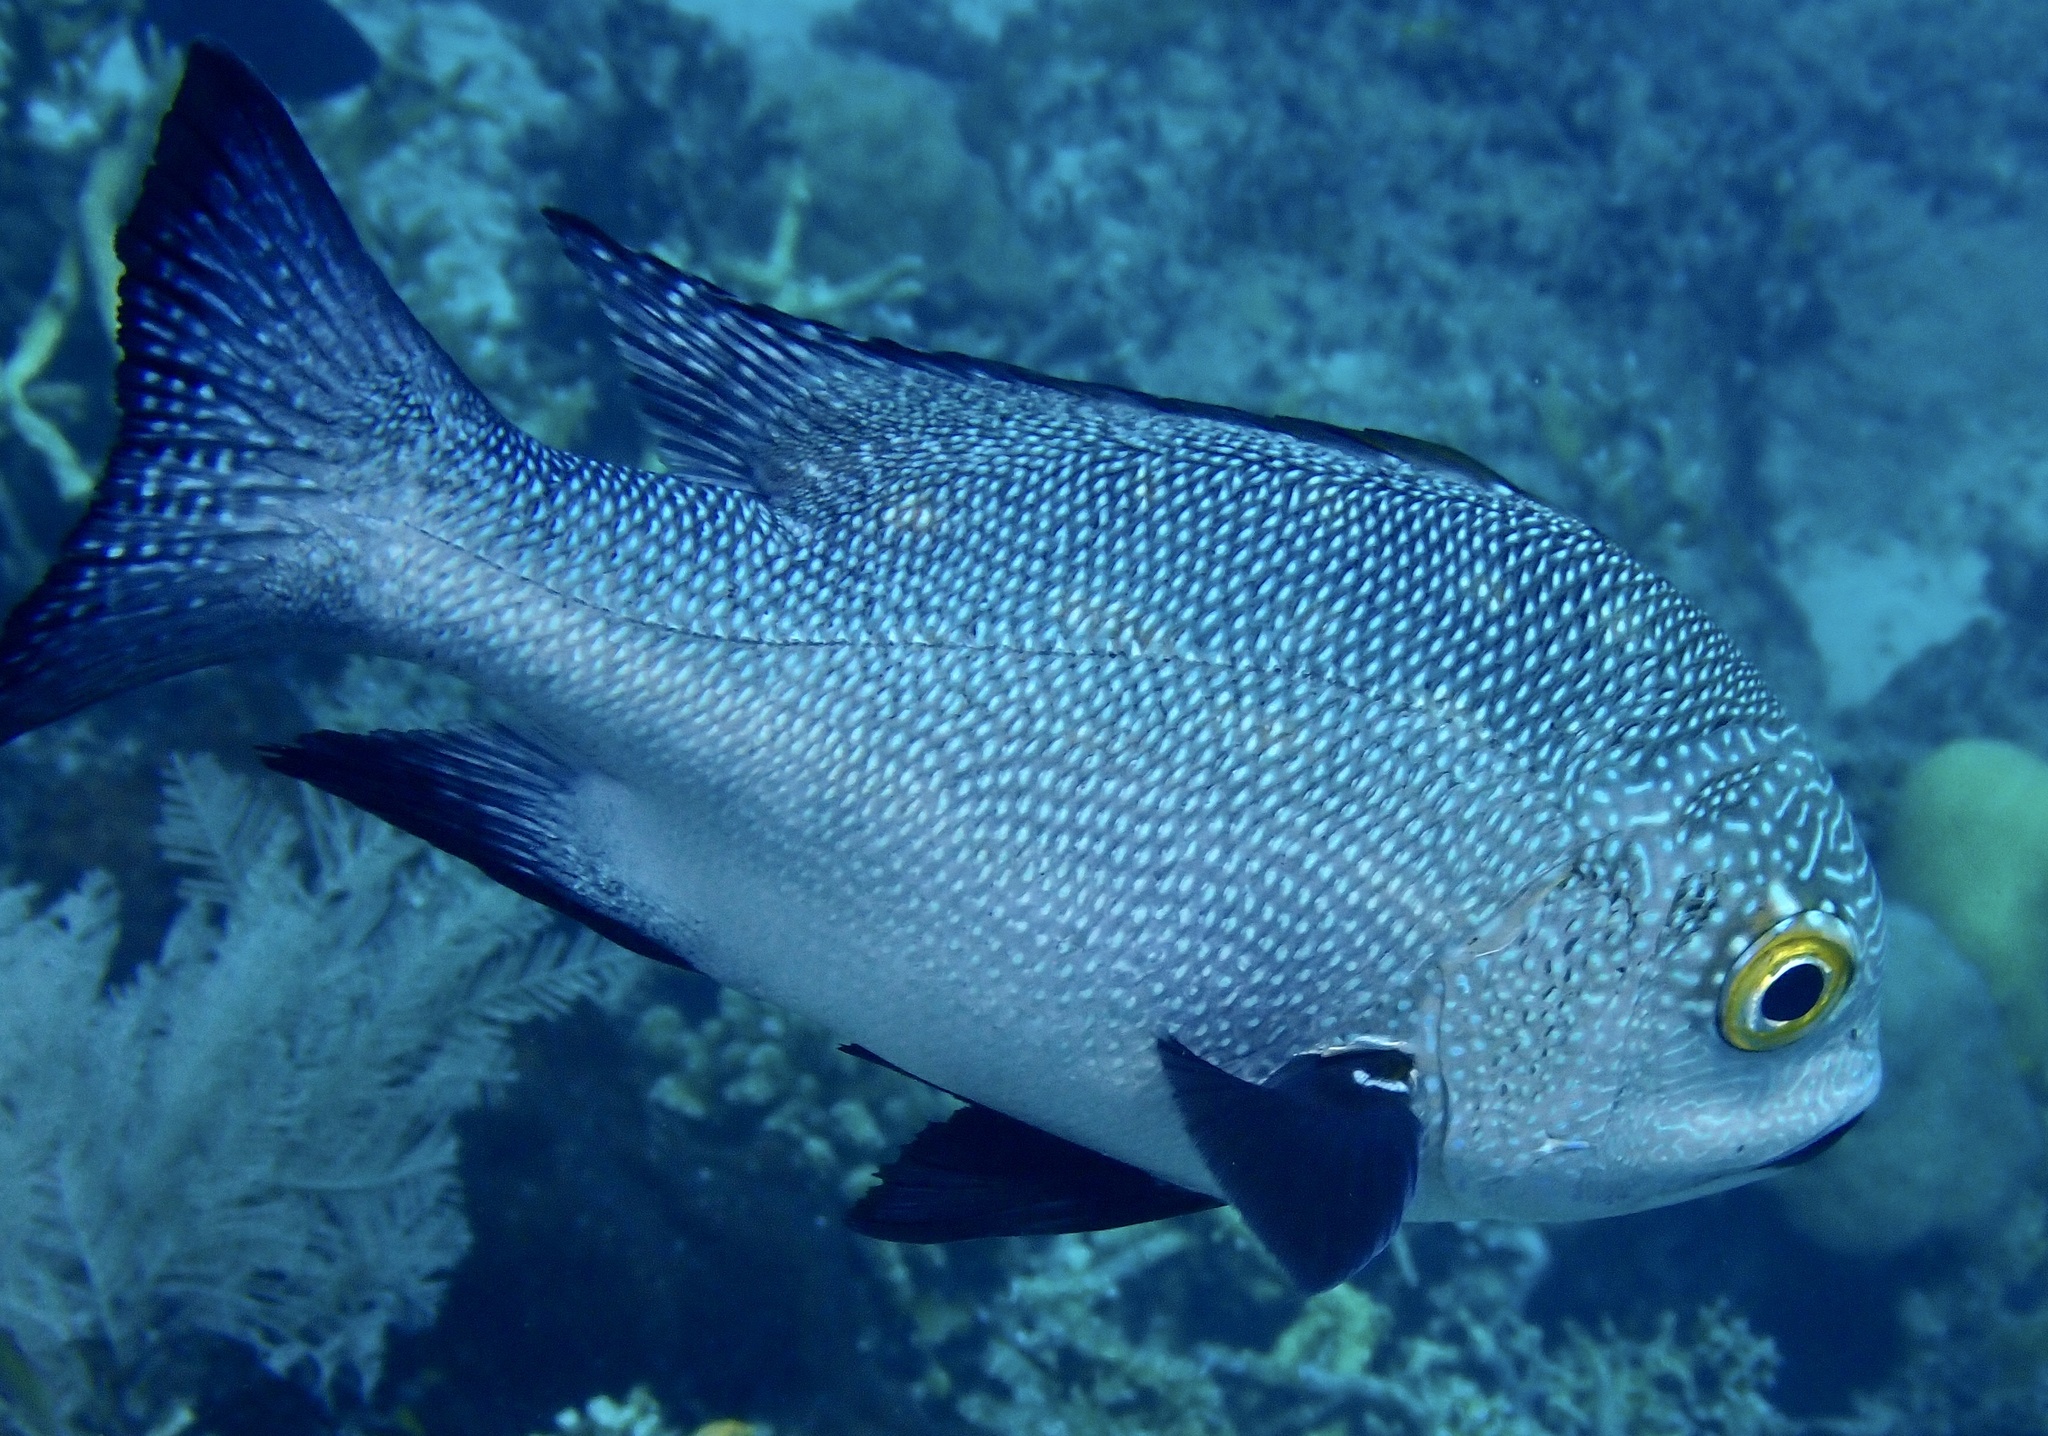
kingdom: Animalia
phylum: Chordata
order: Perciformes
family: Lutjanidae
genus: Macolor
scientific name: Macolor macularis
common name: Midnight snapper
